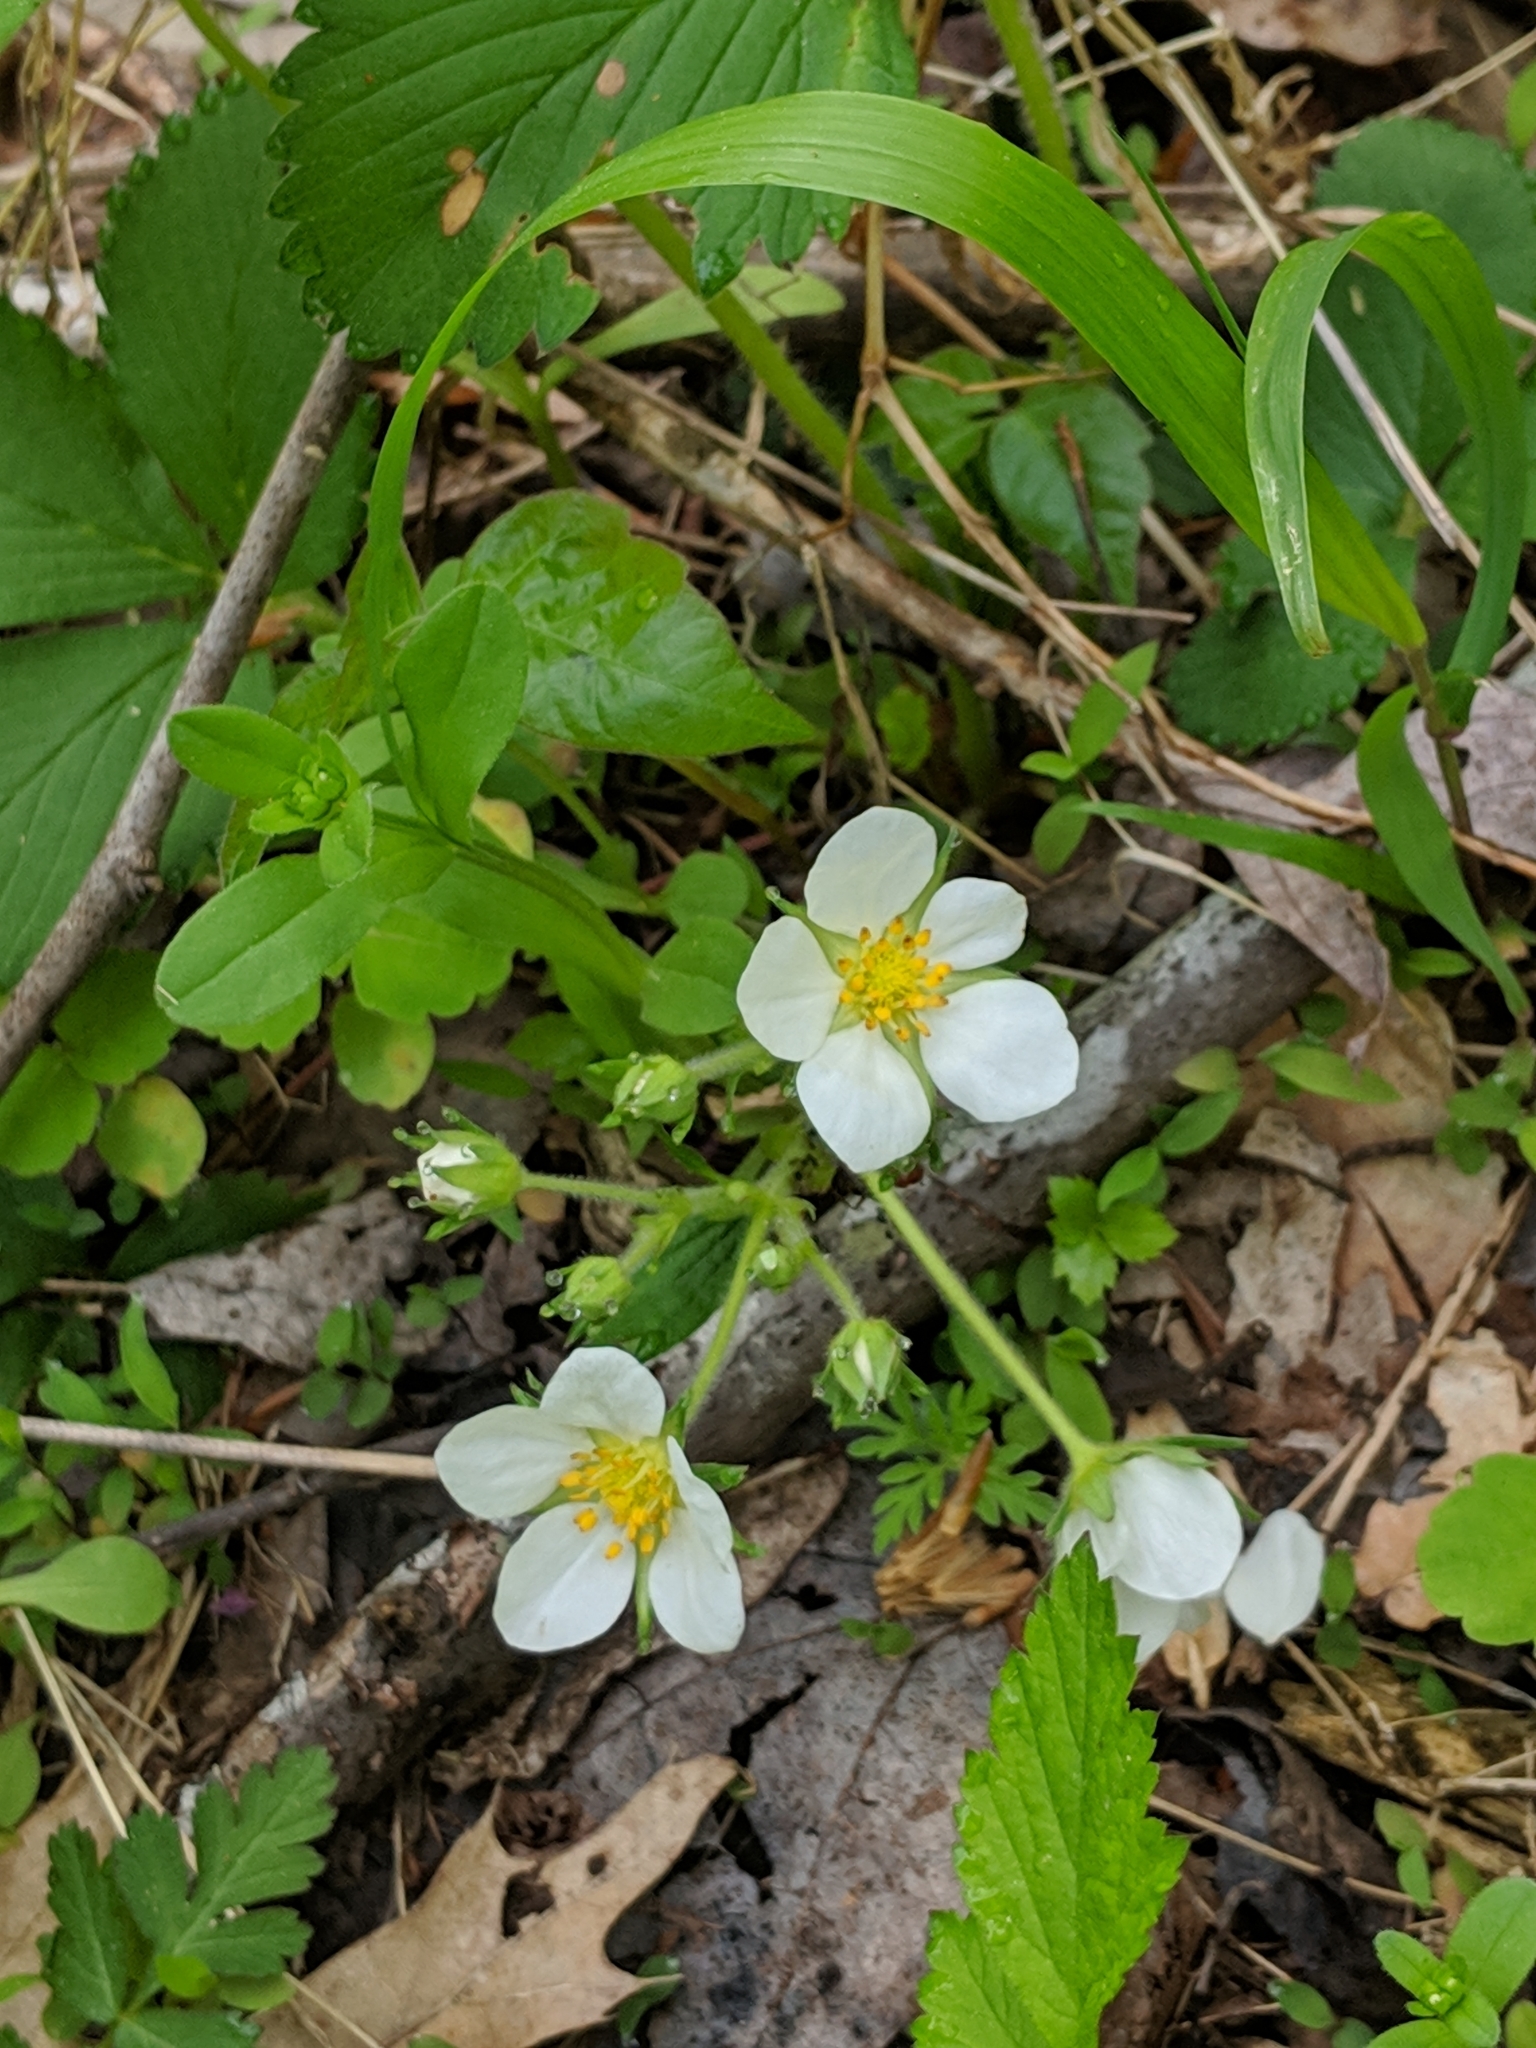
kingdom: Plantae
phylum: Tracheophyta
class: Magnoliopsida
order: Rosales
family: Rosaceae
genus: Fragaria
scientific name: Fragaria vesca
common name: Wild strawberry
